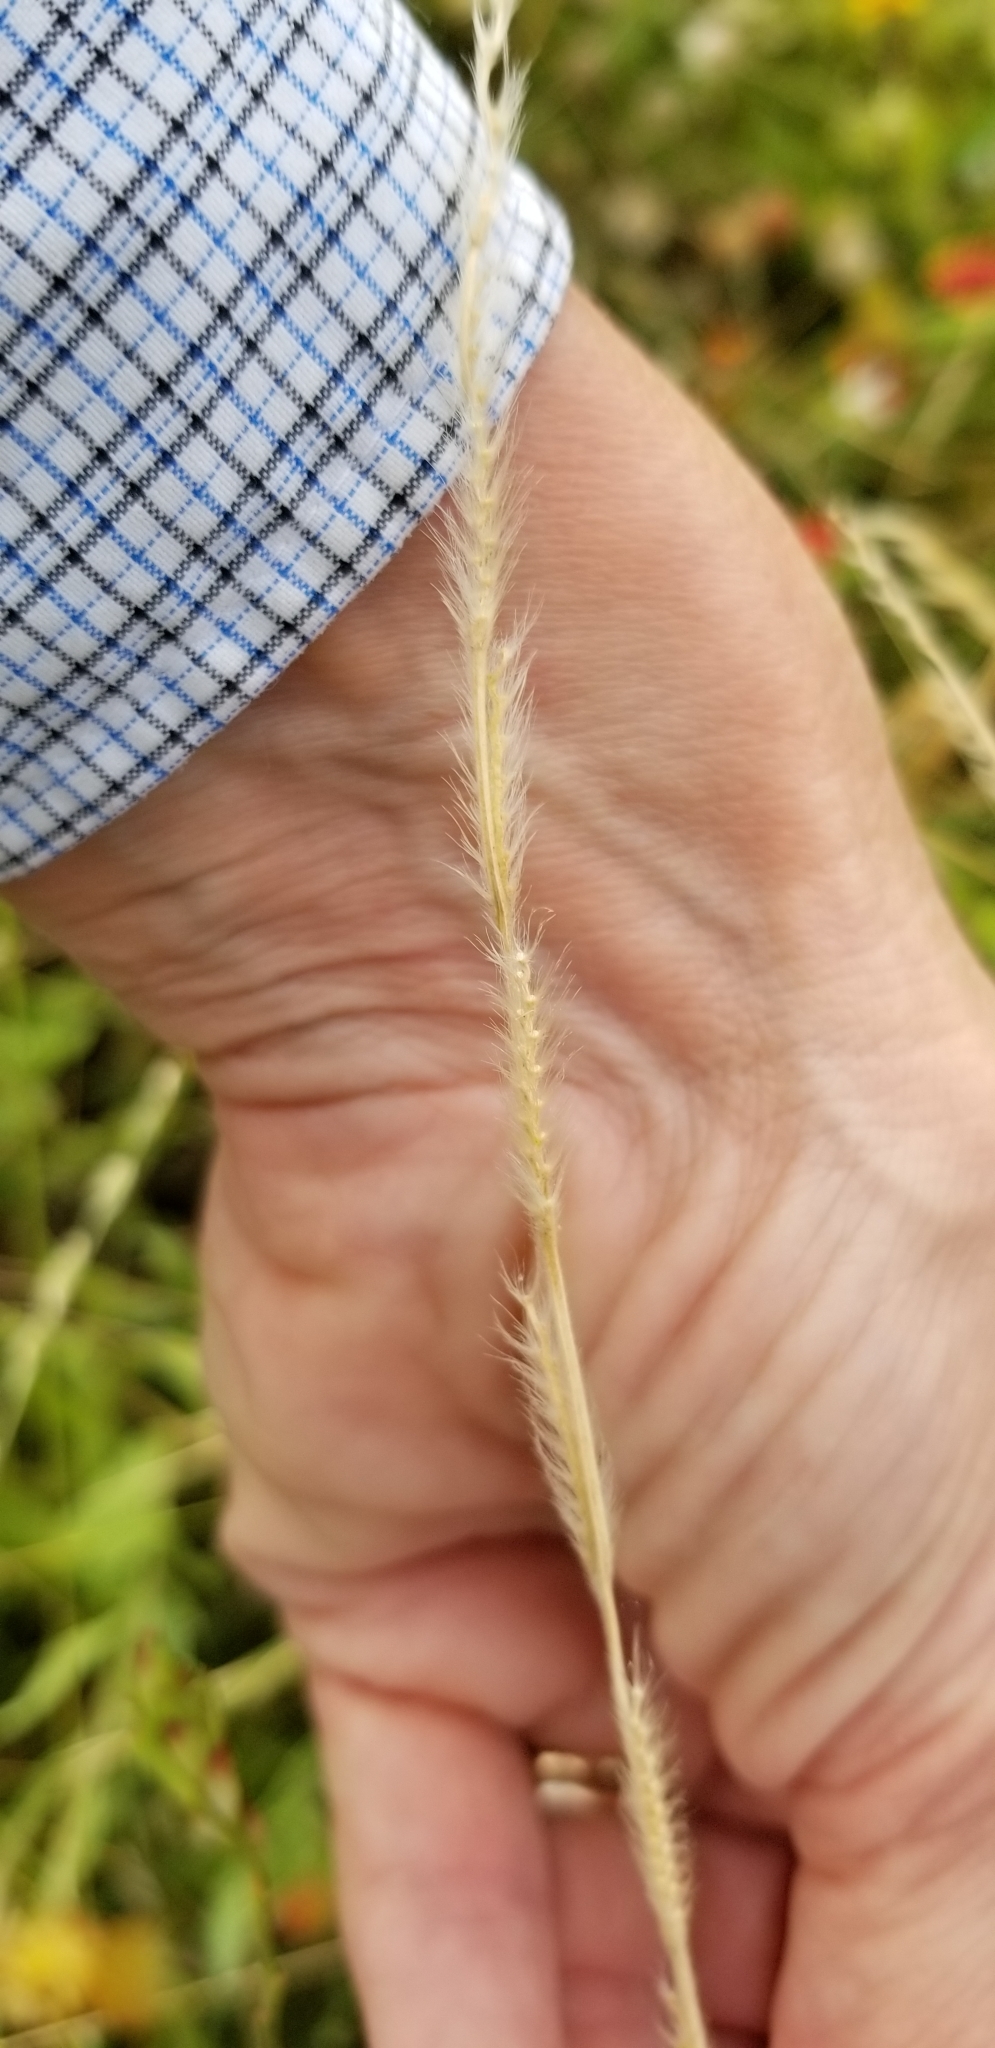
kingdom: Plantae
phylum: Tracheophyta
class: Liliopsida
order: Poales
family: Poaceae
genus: Eriochloa
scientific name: Eriochloa sericea
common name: Texas cup grass
